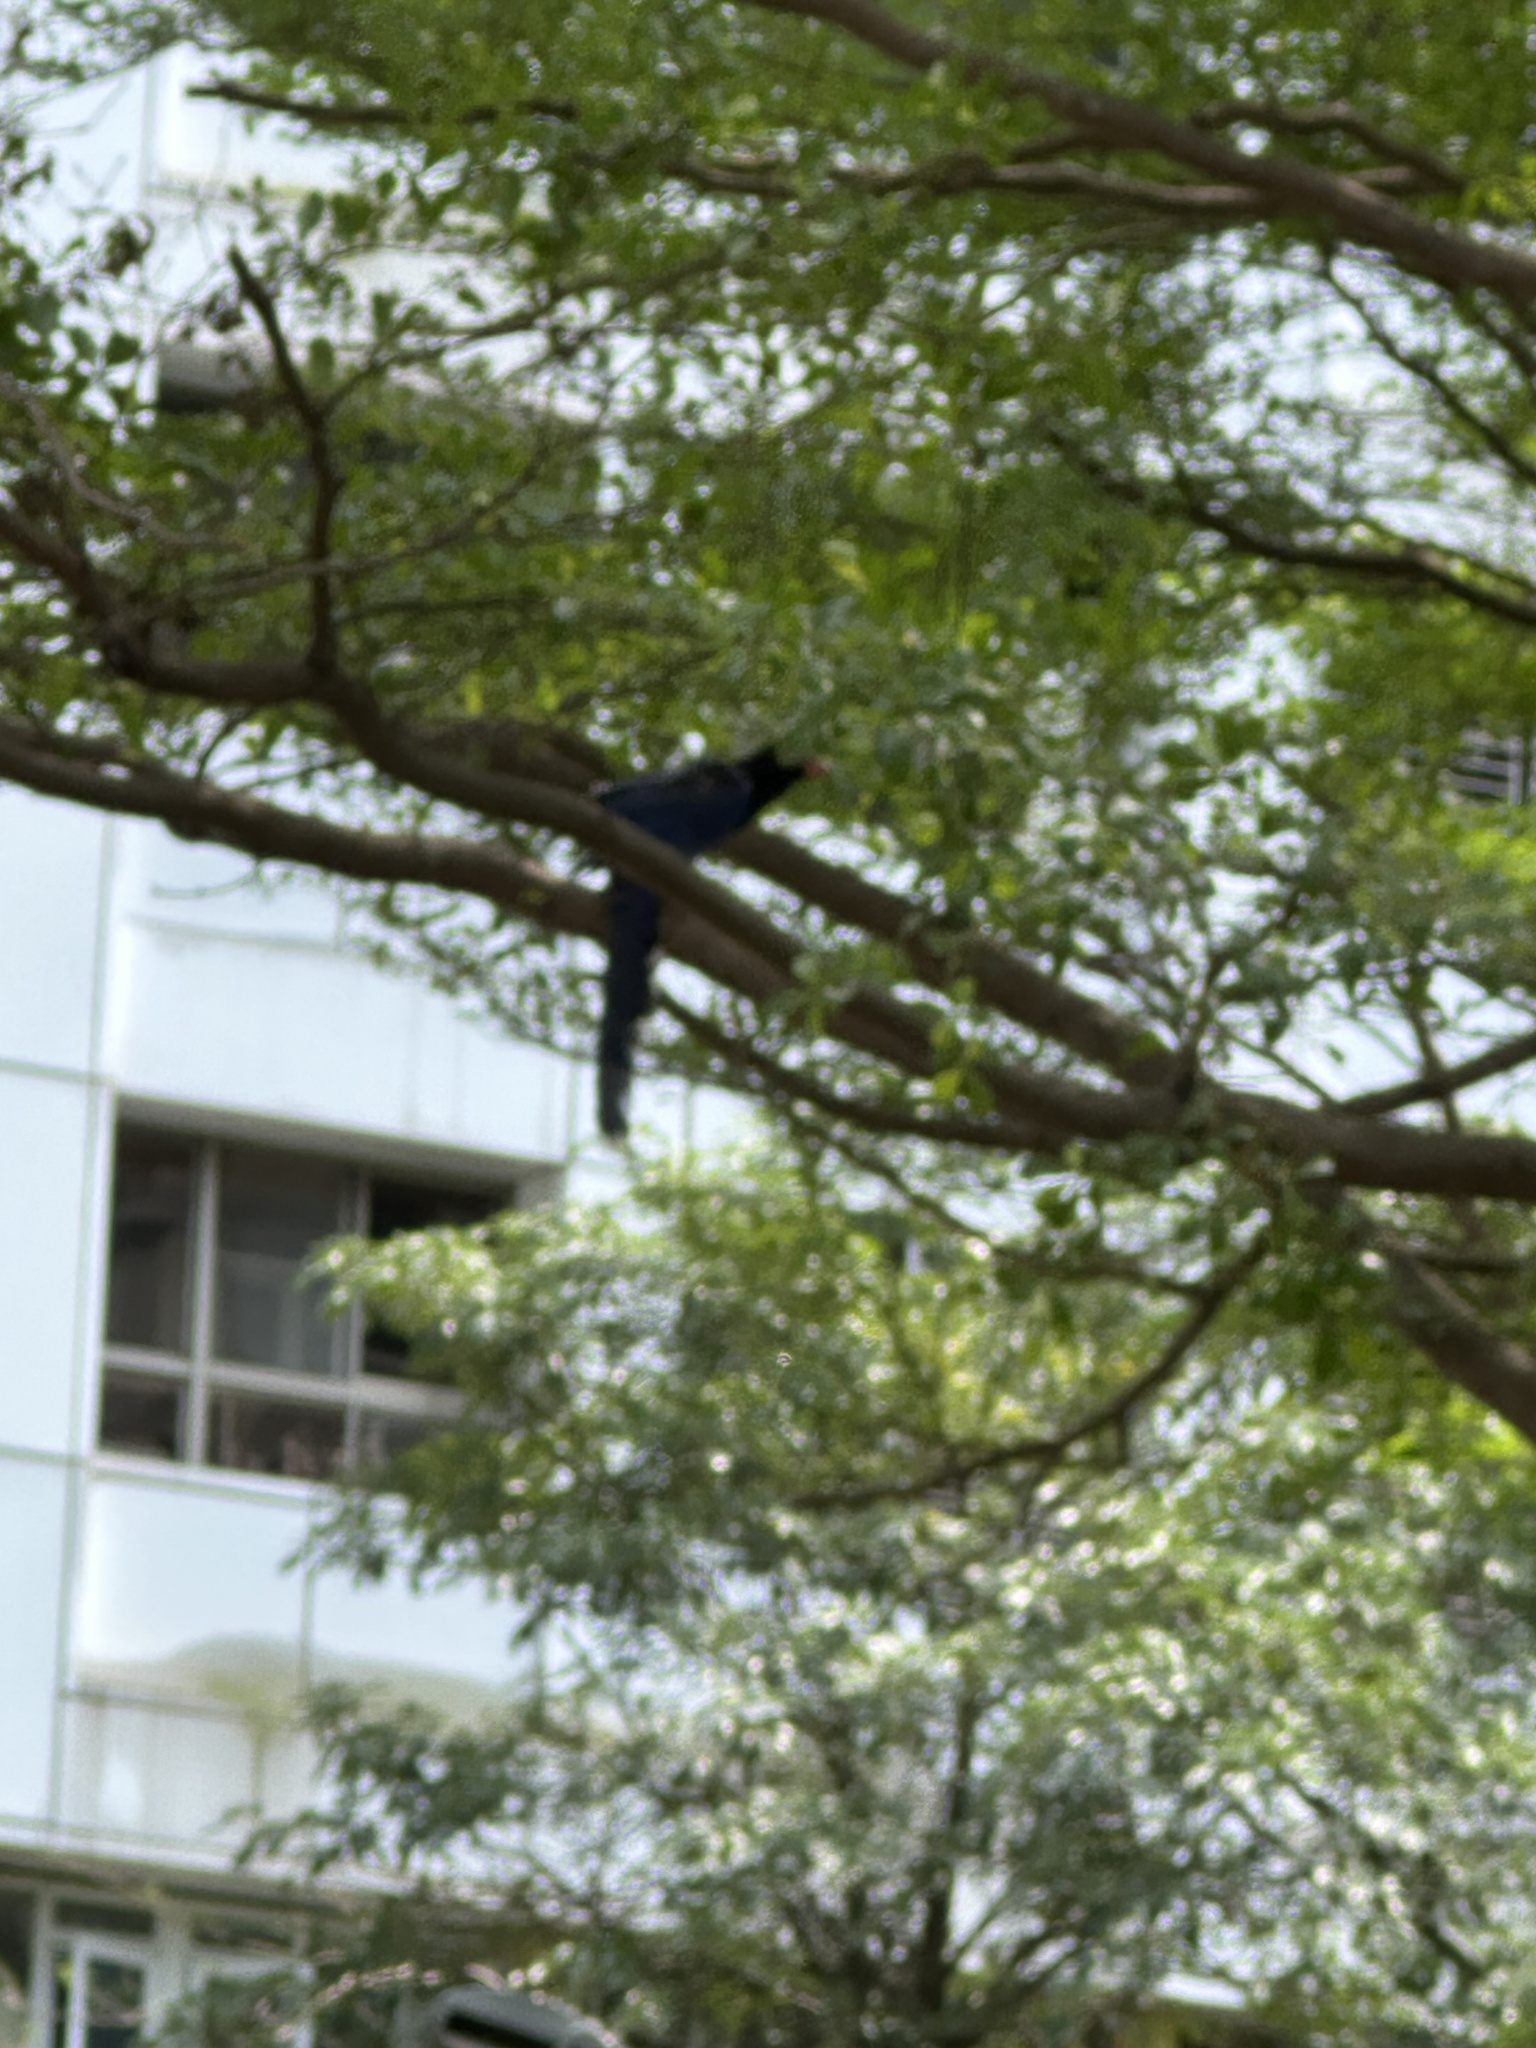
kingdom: Animalia
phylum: Chordata
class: Aves
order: Passeriformes
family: Corvidae
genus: Urocissa
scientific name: Urocissa caerulea
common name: Taiwan blue magpie
